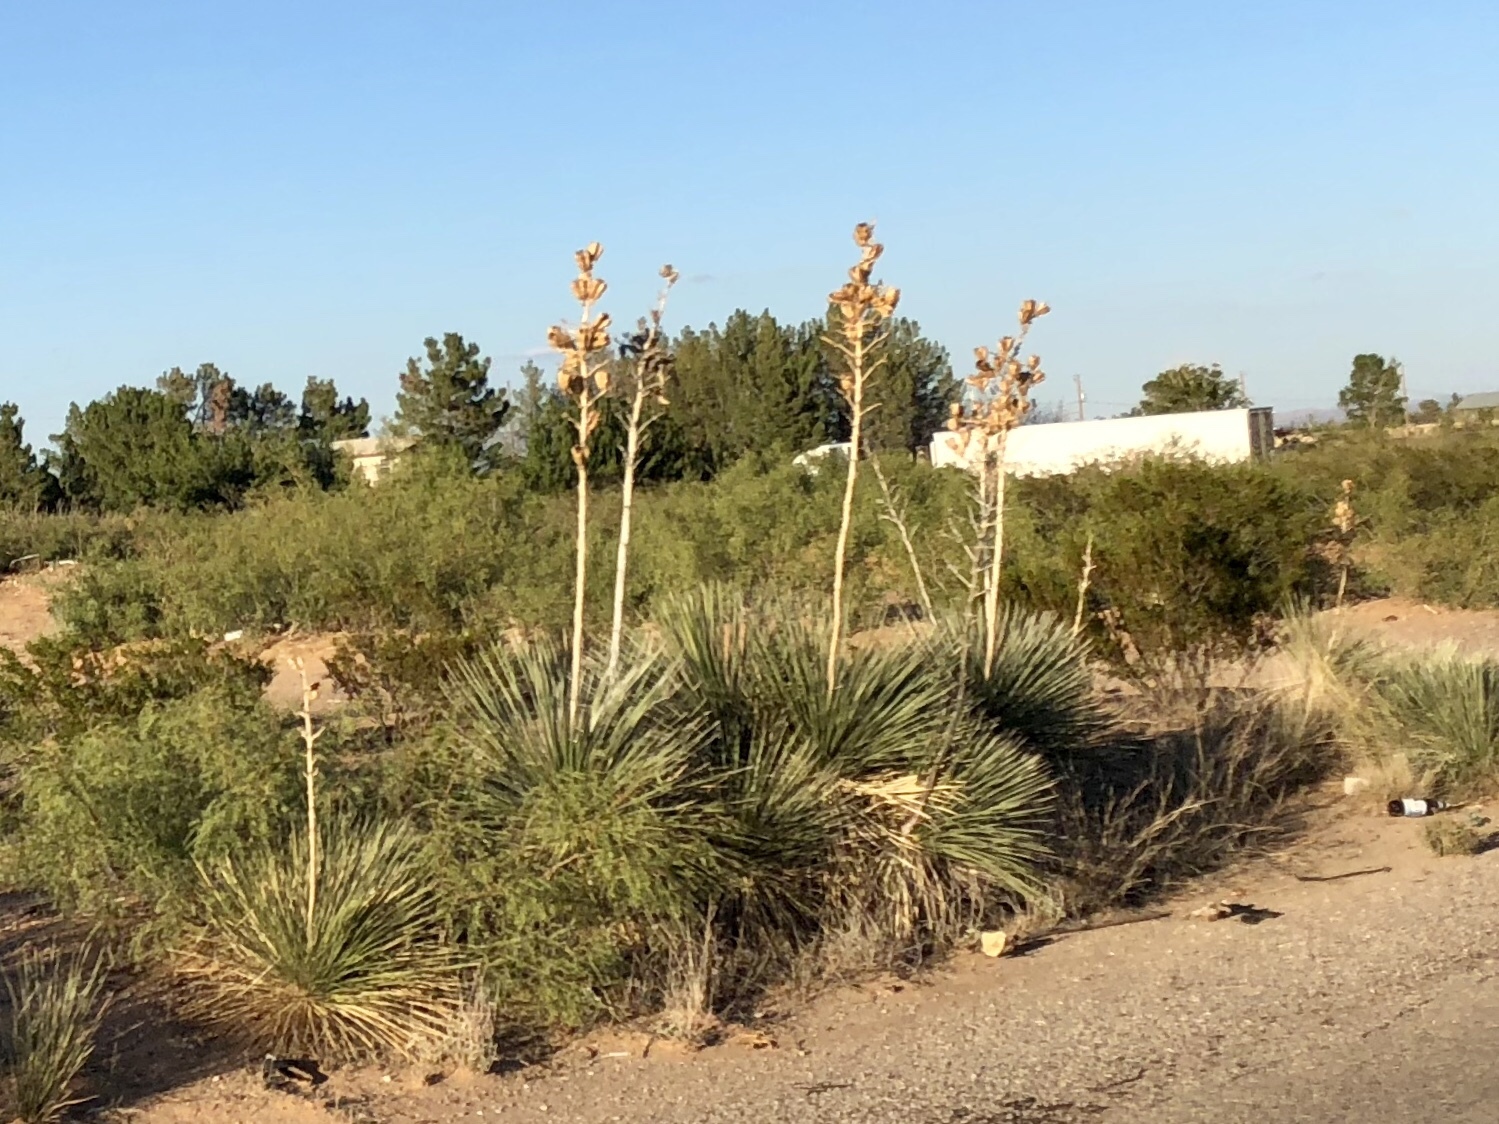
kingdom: Plantae
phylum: Tracheophyta
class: Liliopsida
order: Asparagales
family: Asparagaceae
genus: Yucca
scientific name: Yucca elata
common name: Palmella
